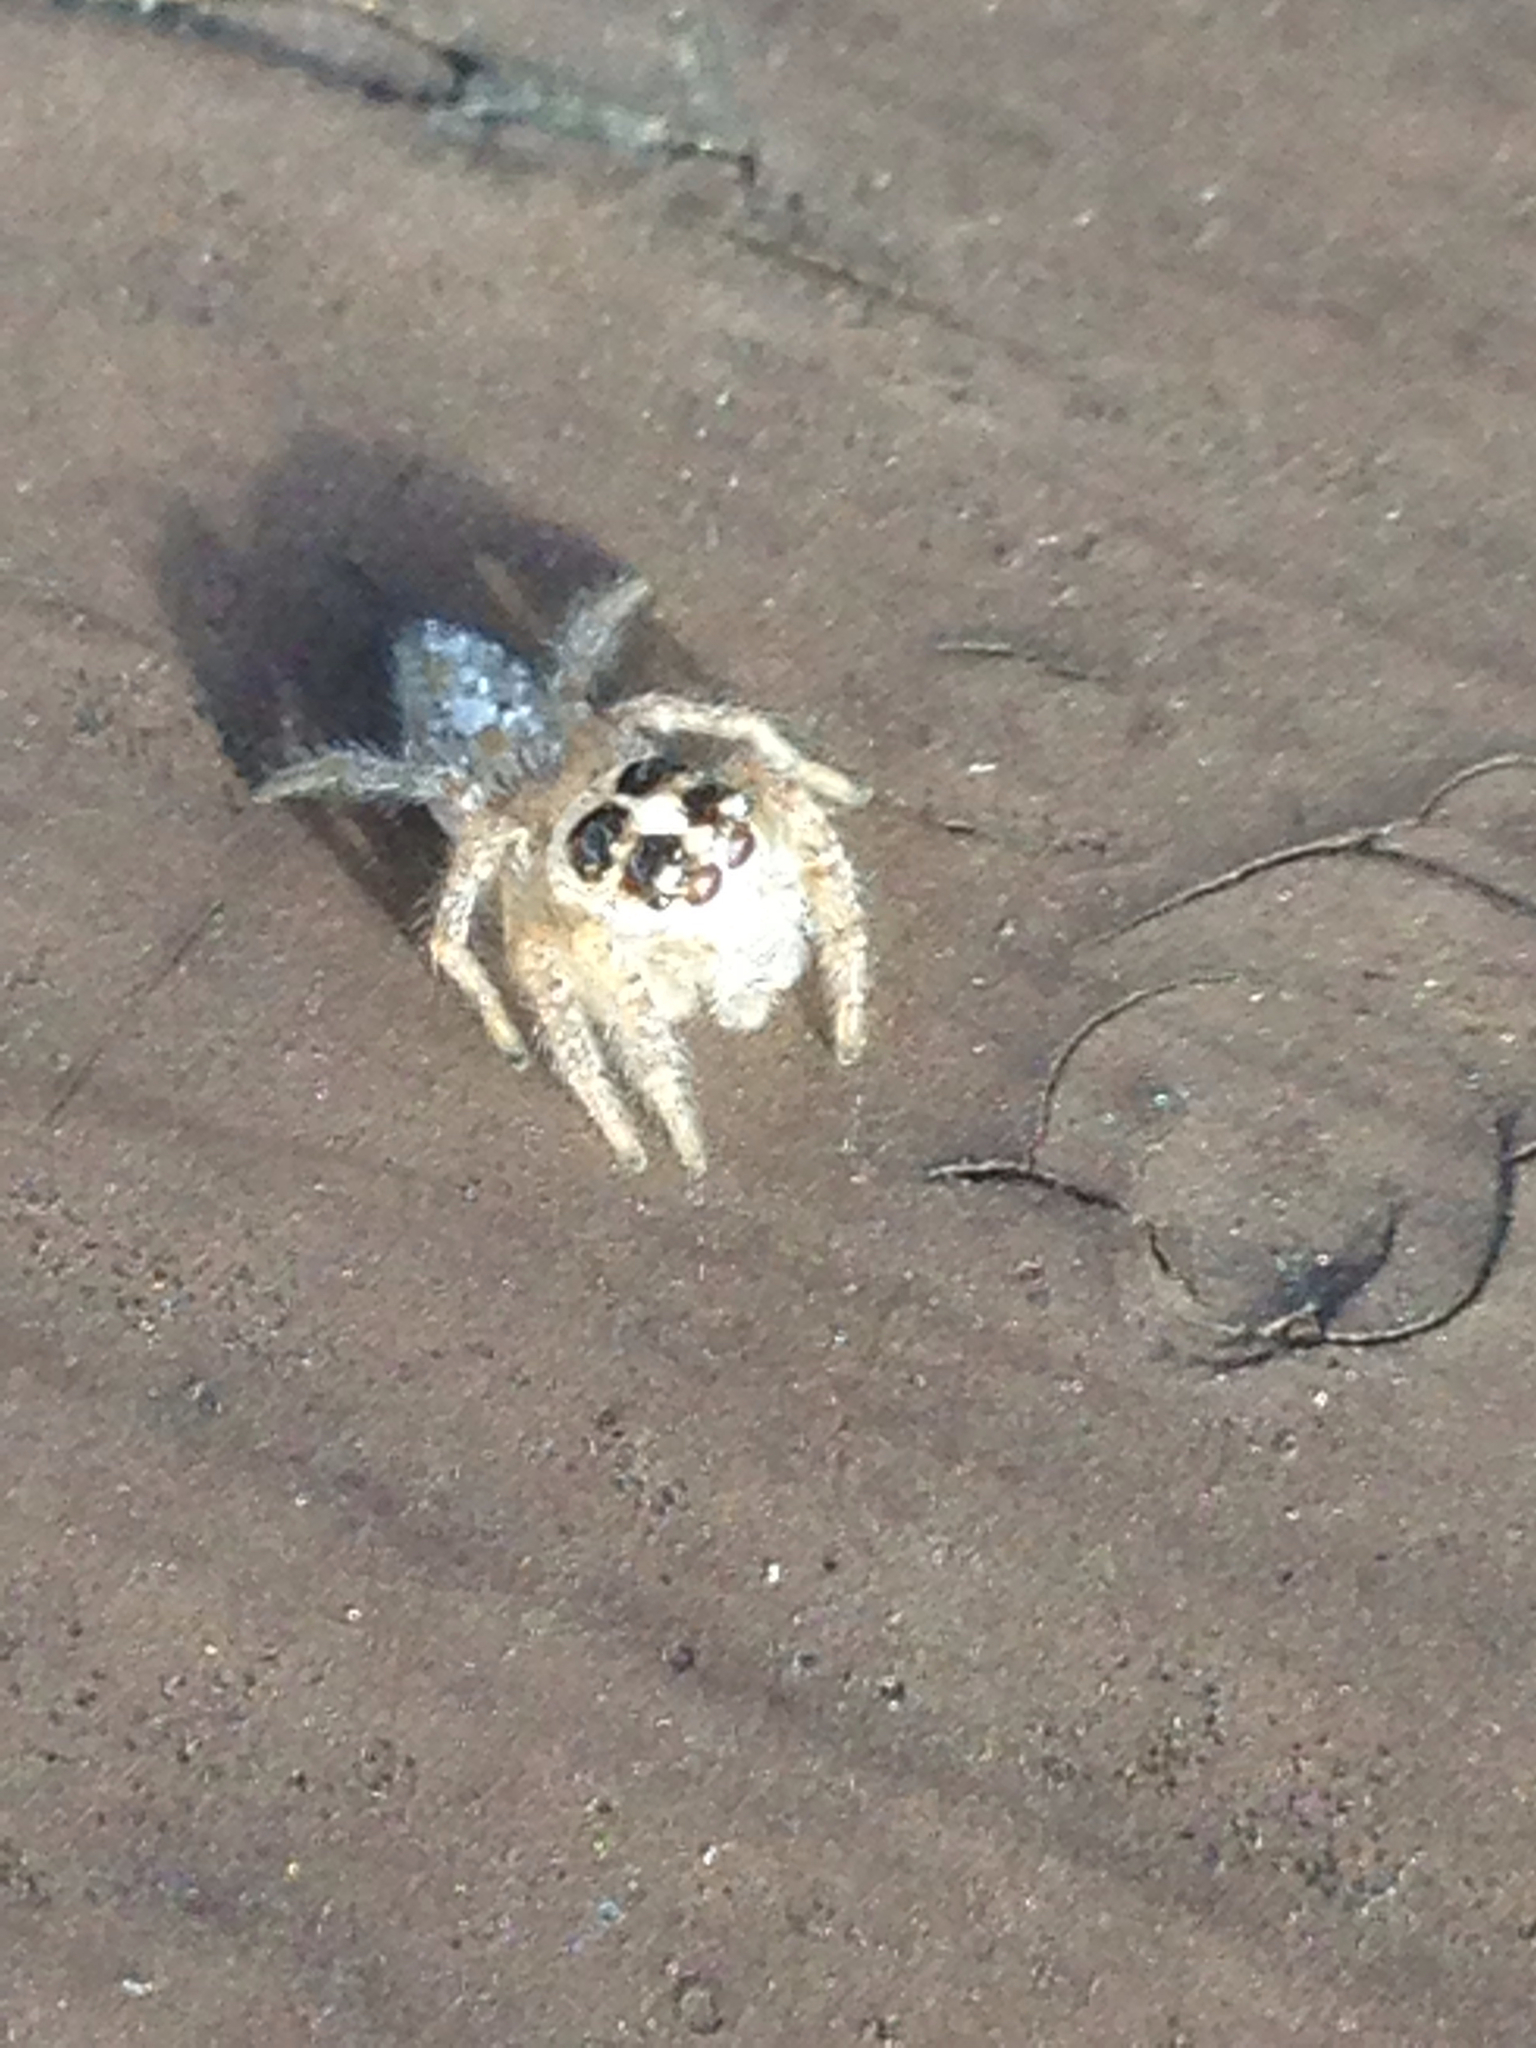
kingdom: Animalia
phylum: Arthropoda
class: Arachnida
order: Araneae
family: Salticidae
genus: Colonus
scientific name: Colonus hesperus
